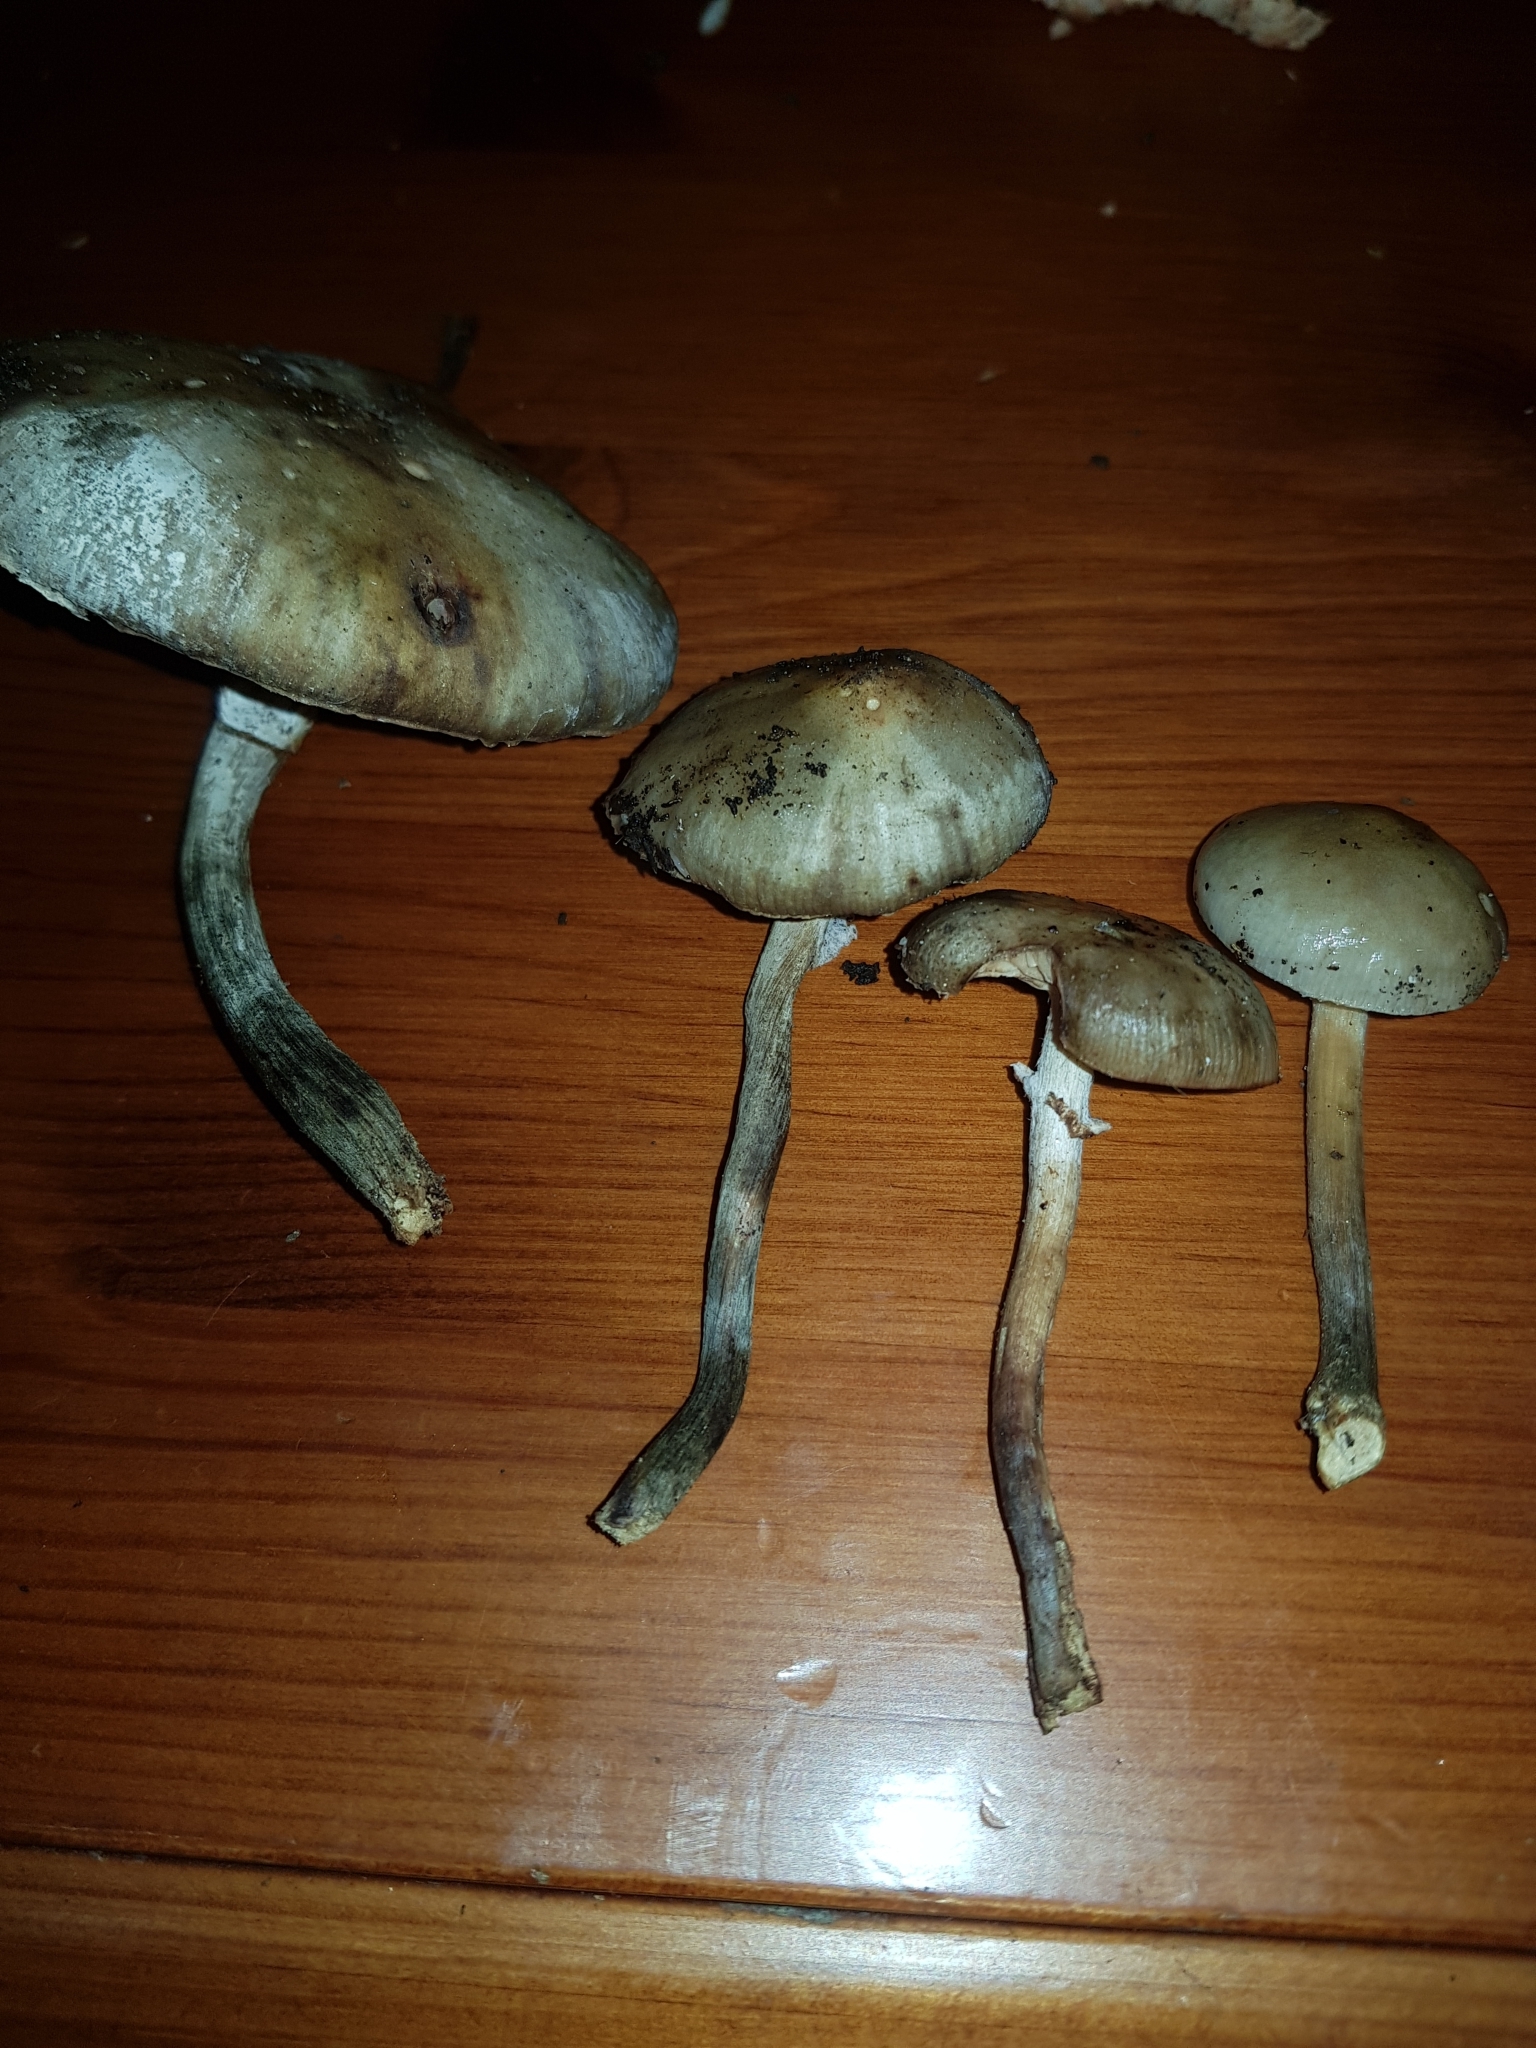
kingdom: Fungi
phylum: Basidiomycota
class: Agaricomycetes
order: Agaricales
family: Physalacriaceae
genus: Armillaria
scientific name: Armillaria novae-zelandiae
